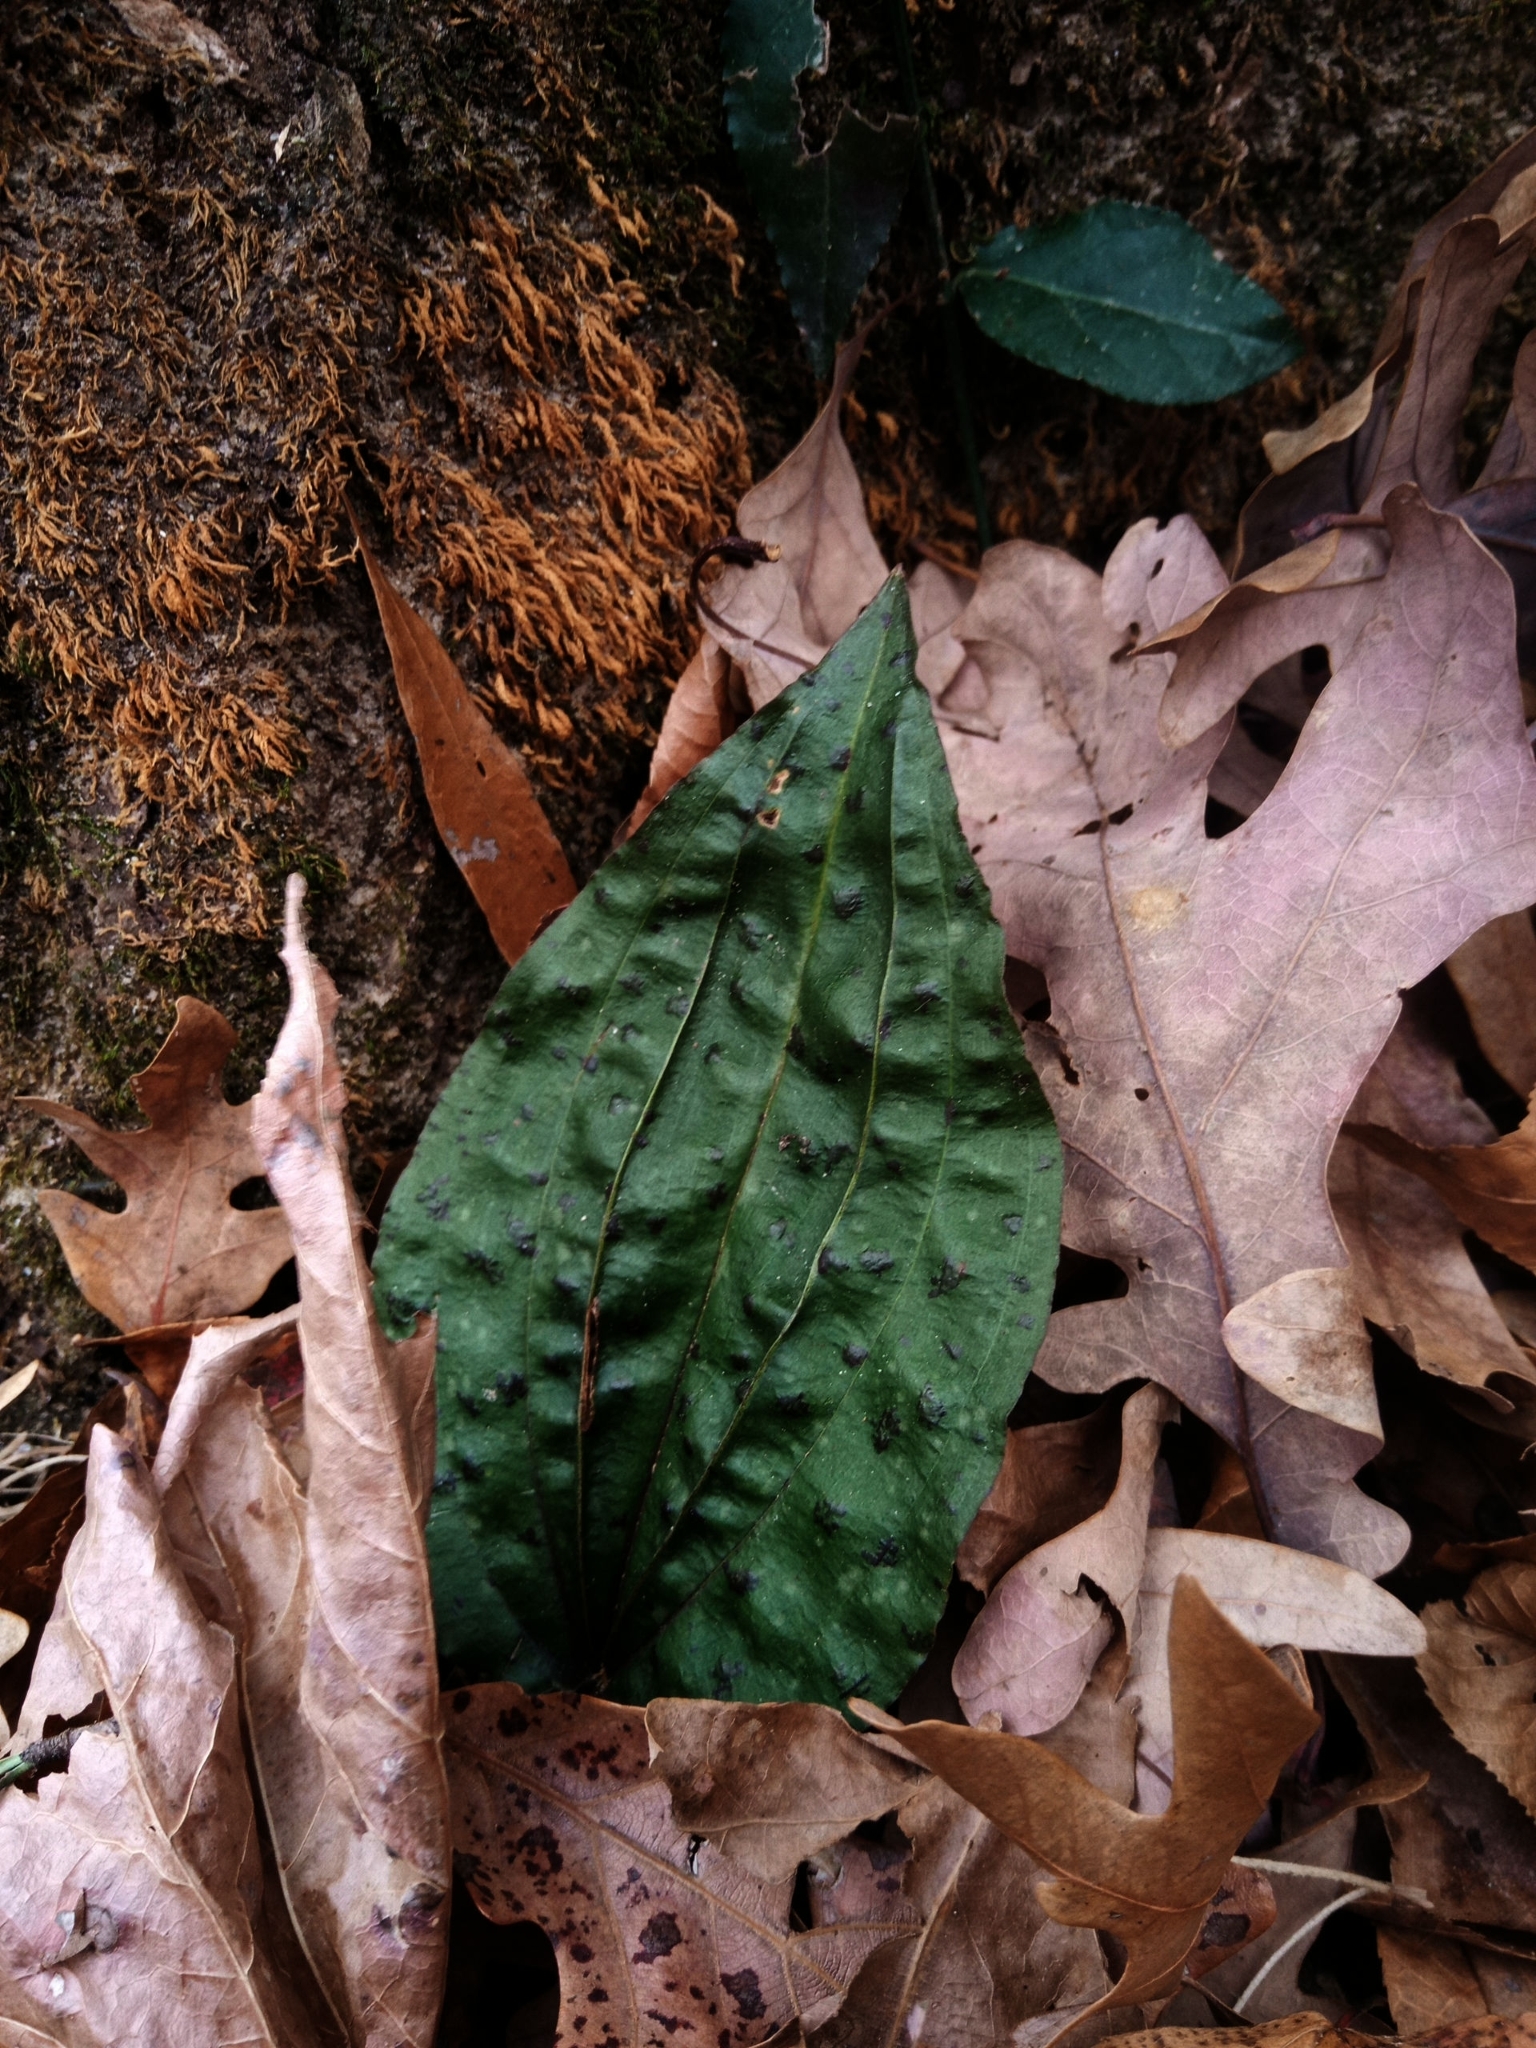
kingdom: Plantae
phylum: Tracheophyta
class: Liliopsida
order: Asparagales
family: Orchidaceae
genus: Tipularia
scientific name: Tipularia discolor
